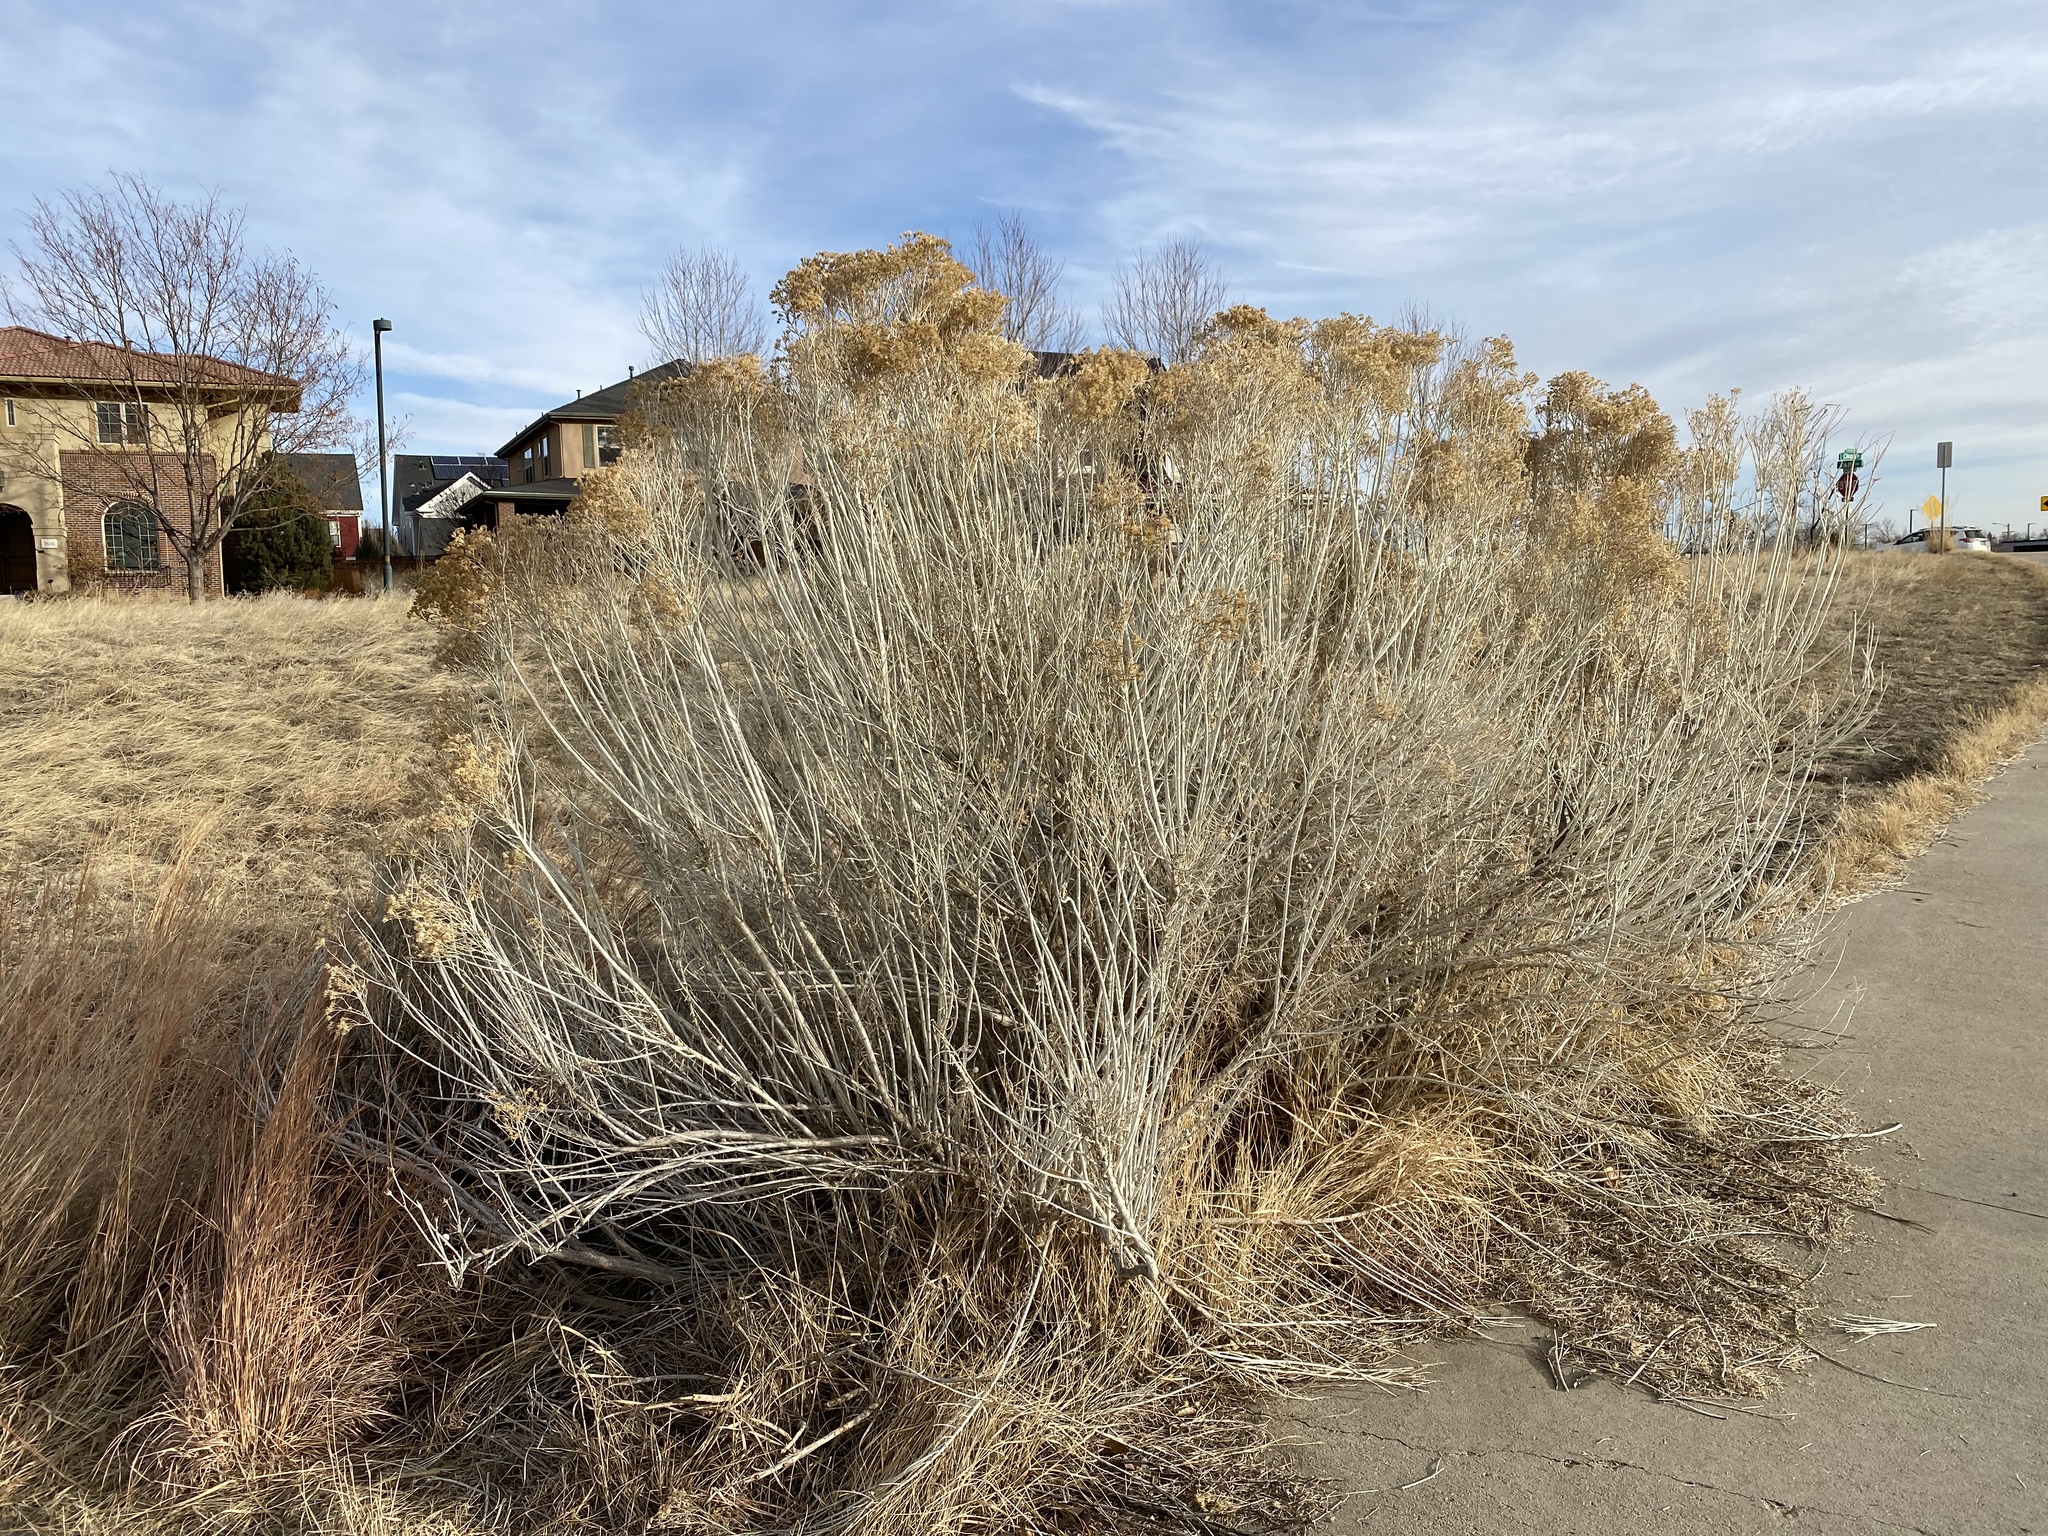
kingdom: Plantae
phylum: Tracheophyta
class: Magnoliopsida
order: Asterales
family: Asteraceae
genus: Ericameria
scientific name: Ericameria nauseosa
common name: Rubber rabbitbrush
